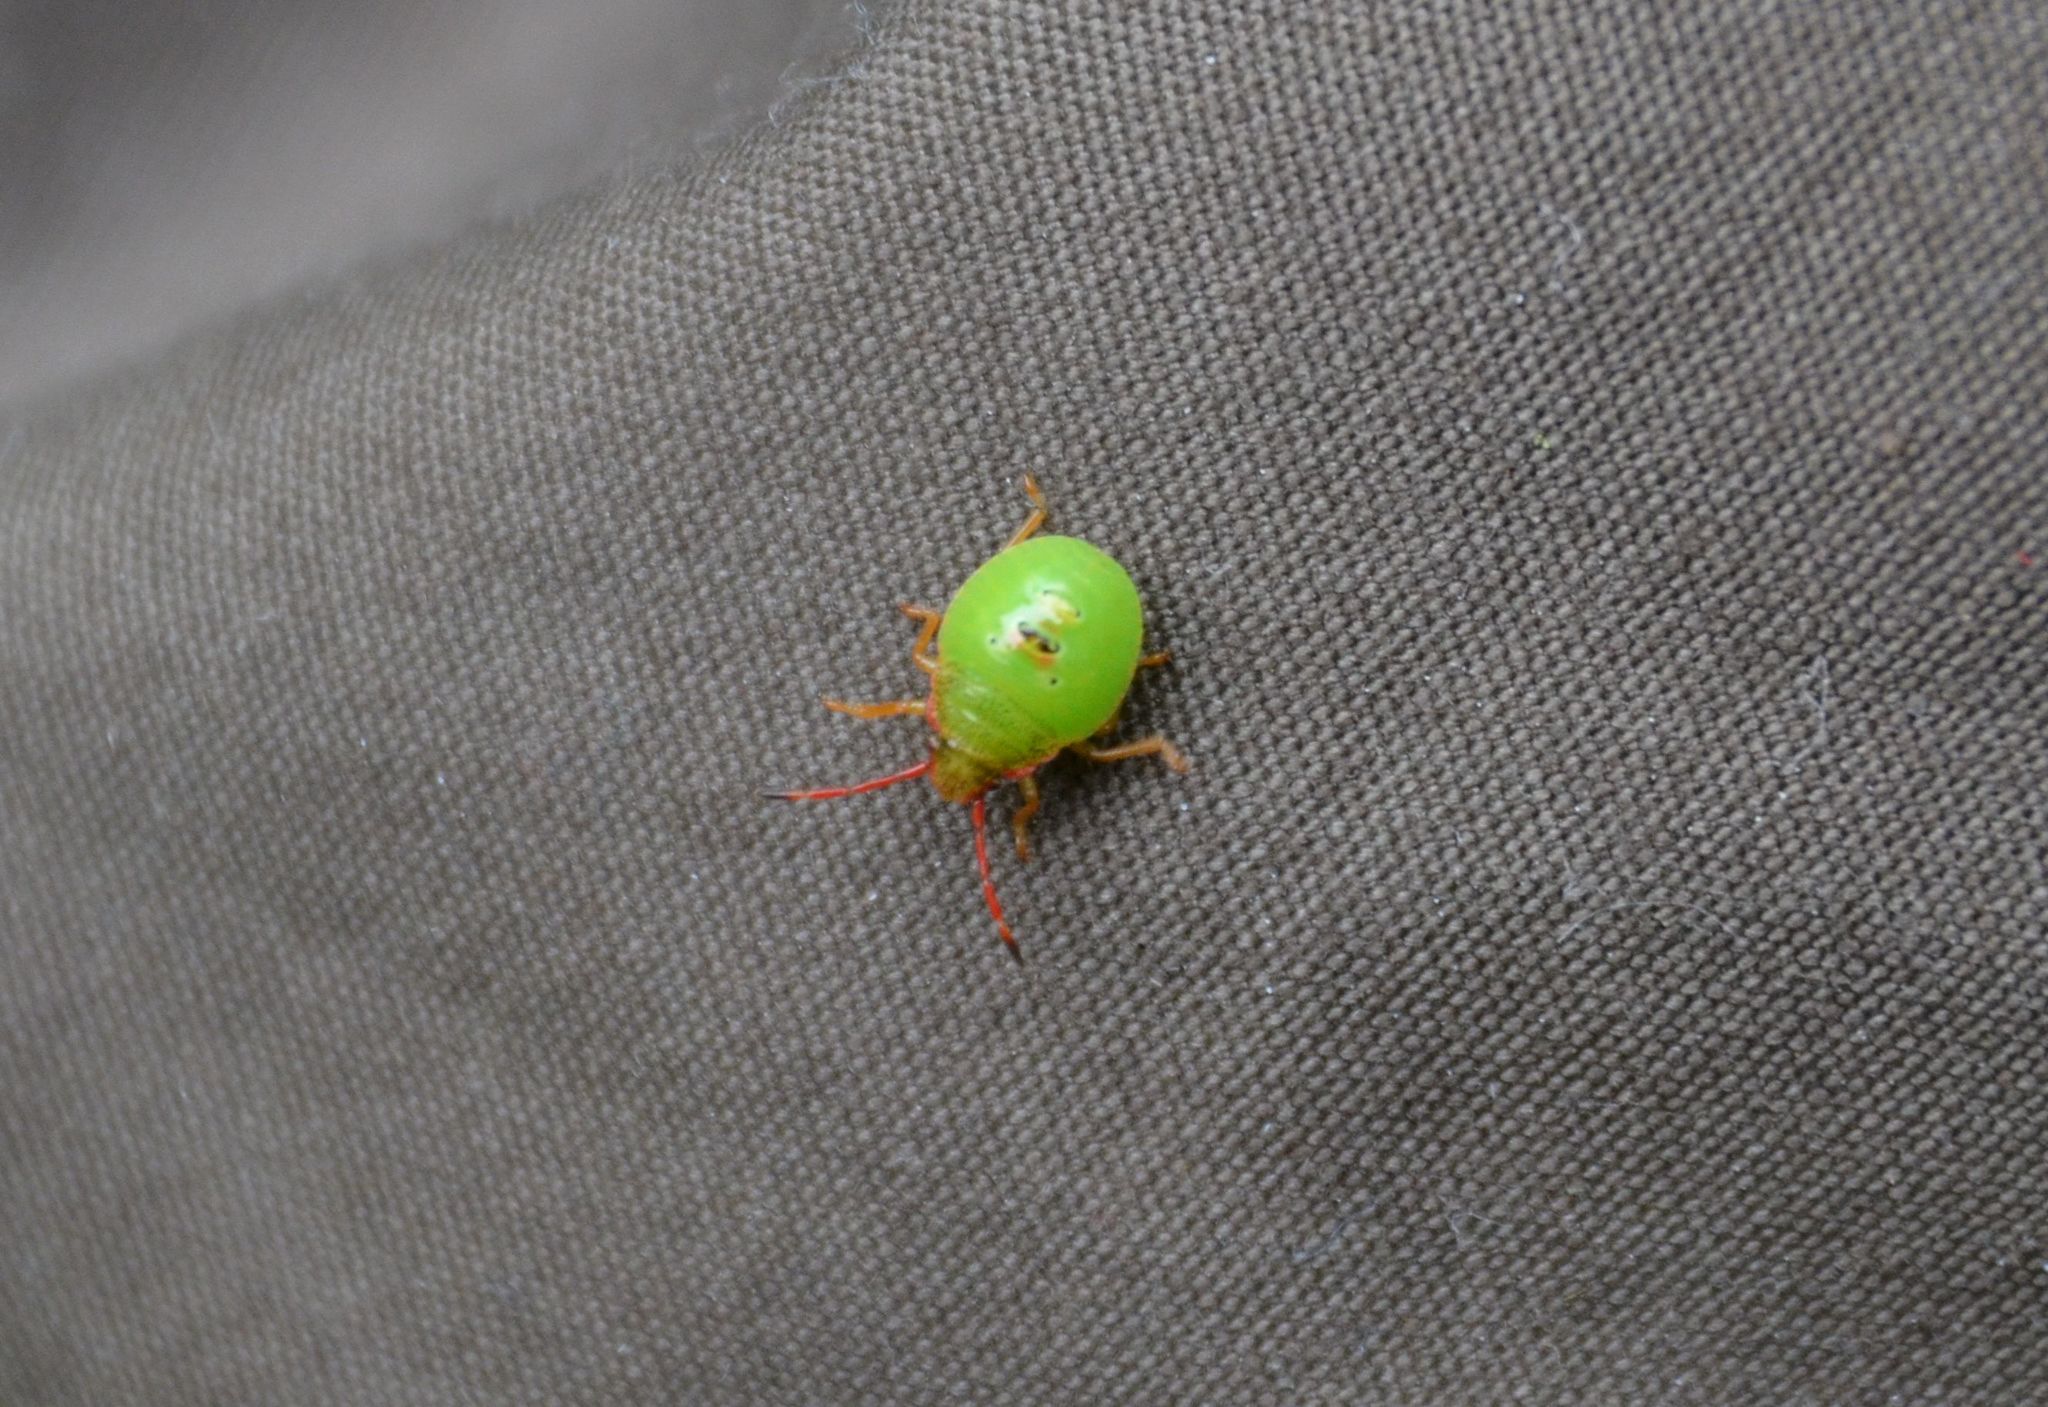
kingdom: Animalia
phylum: Arthropoda
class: Insecta
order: Hemiptera
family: Acanthosomatidae
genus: Acanthosoma
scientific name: Acanthosoma haemorrhoidale
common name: Hawthorn shieldbug
